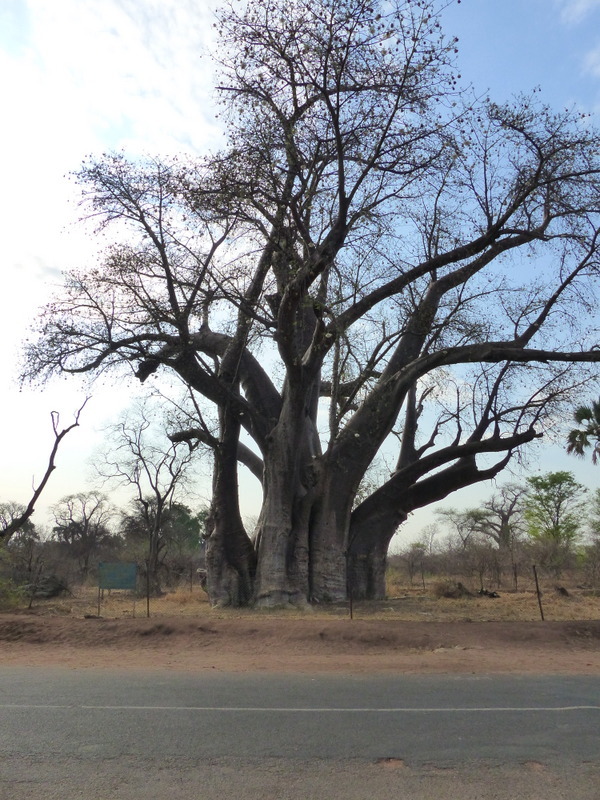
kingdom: Plantae
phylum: Tracheophyta
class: Magnoliopsida
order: Malvales
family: Malvaceae
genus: Adansonia
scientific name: Adansonia digitata
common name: Dead-rat-tree
